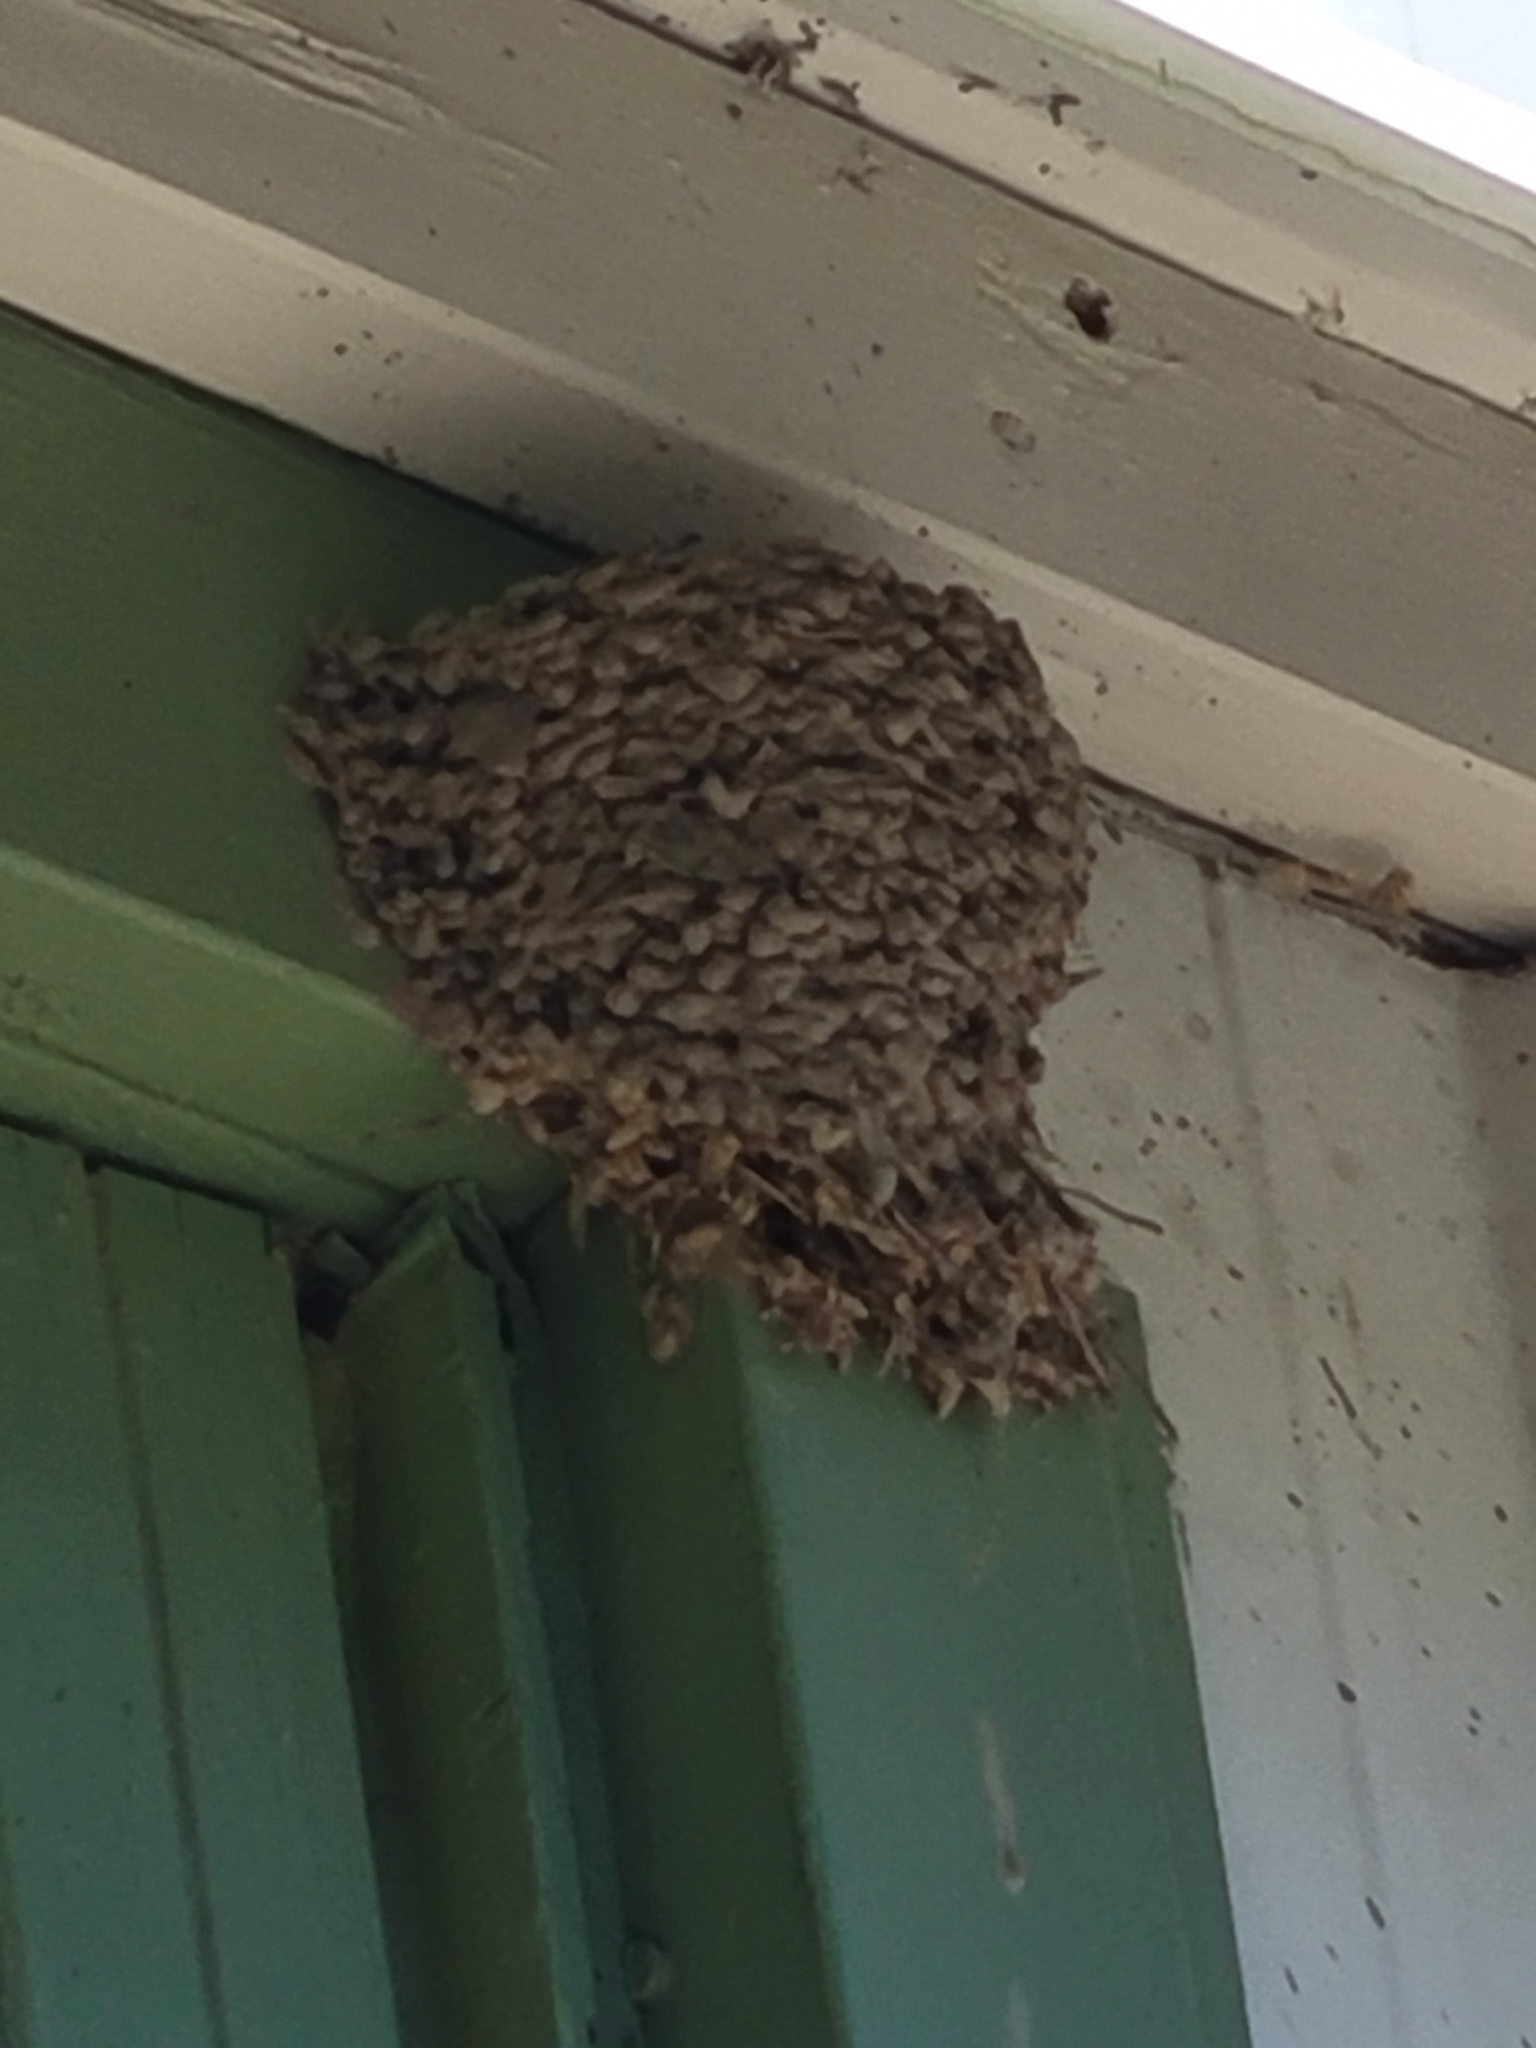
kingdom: Animalia
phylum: Chordata
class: Aves
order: Passeriformes
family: Hirundinidae
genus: Hirundo
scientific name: Hirundo rustica
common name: Barn swallow
